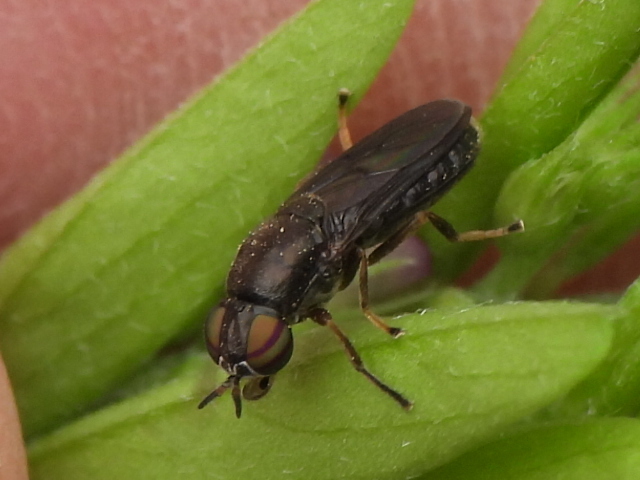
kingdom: Animalia
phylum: Arthropoda
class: Insecta
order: Diptera
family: Stratiomyidae
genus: Allognosta
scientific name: Allognosta obscuriventris
